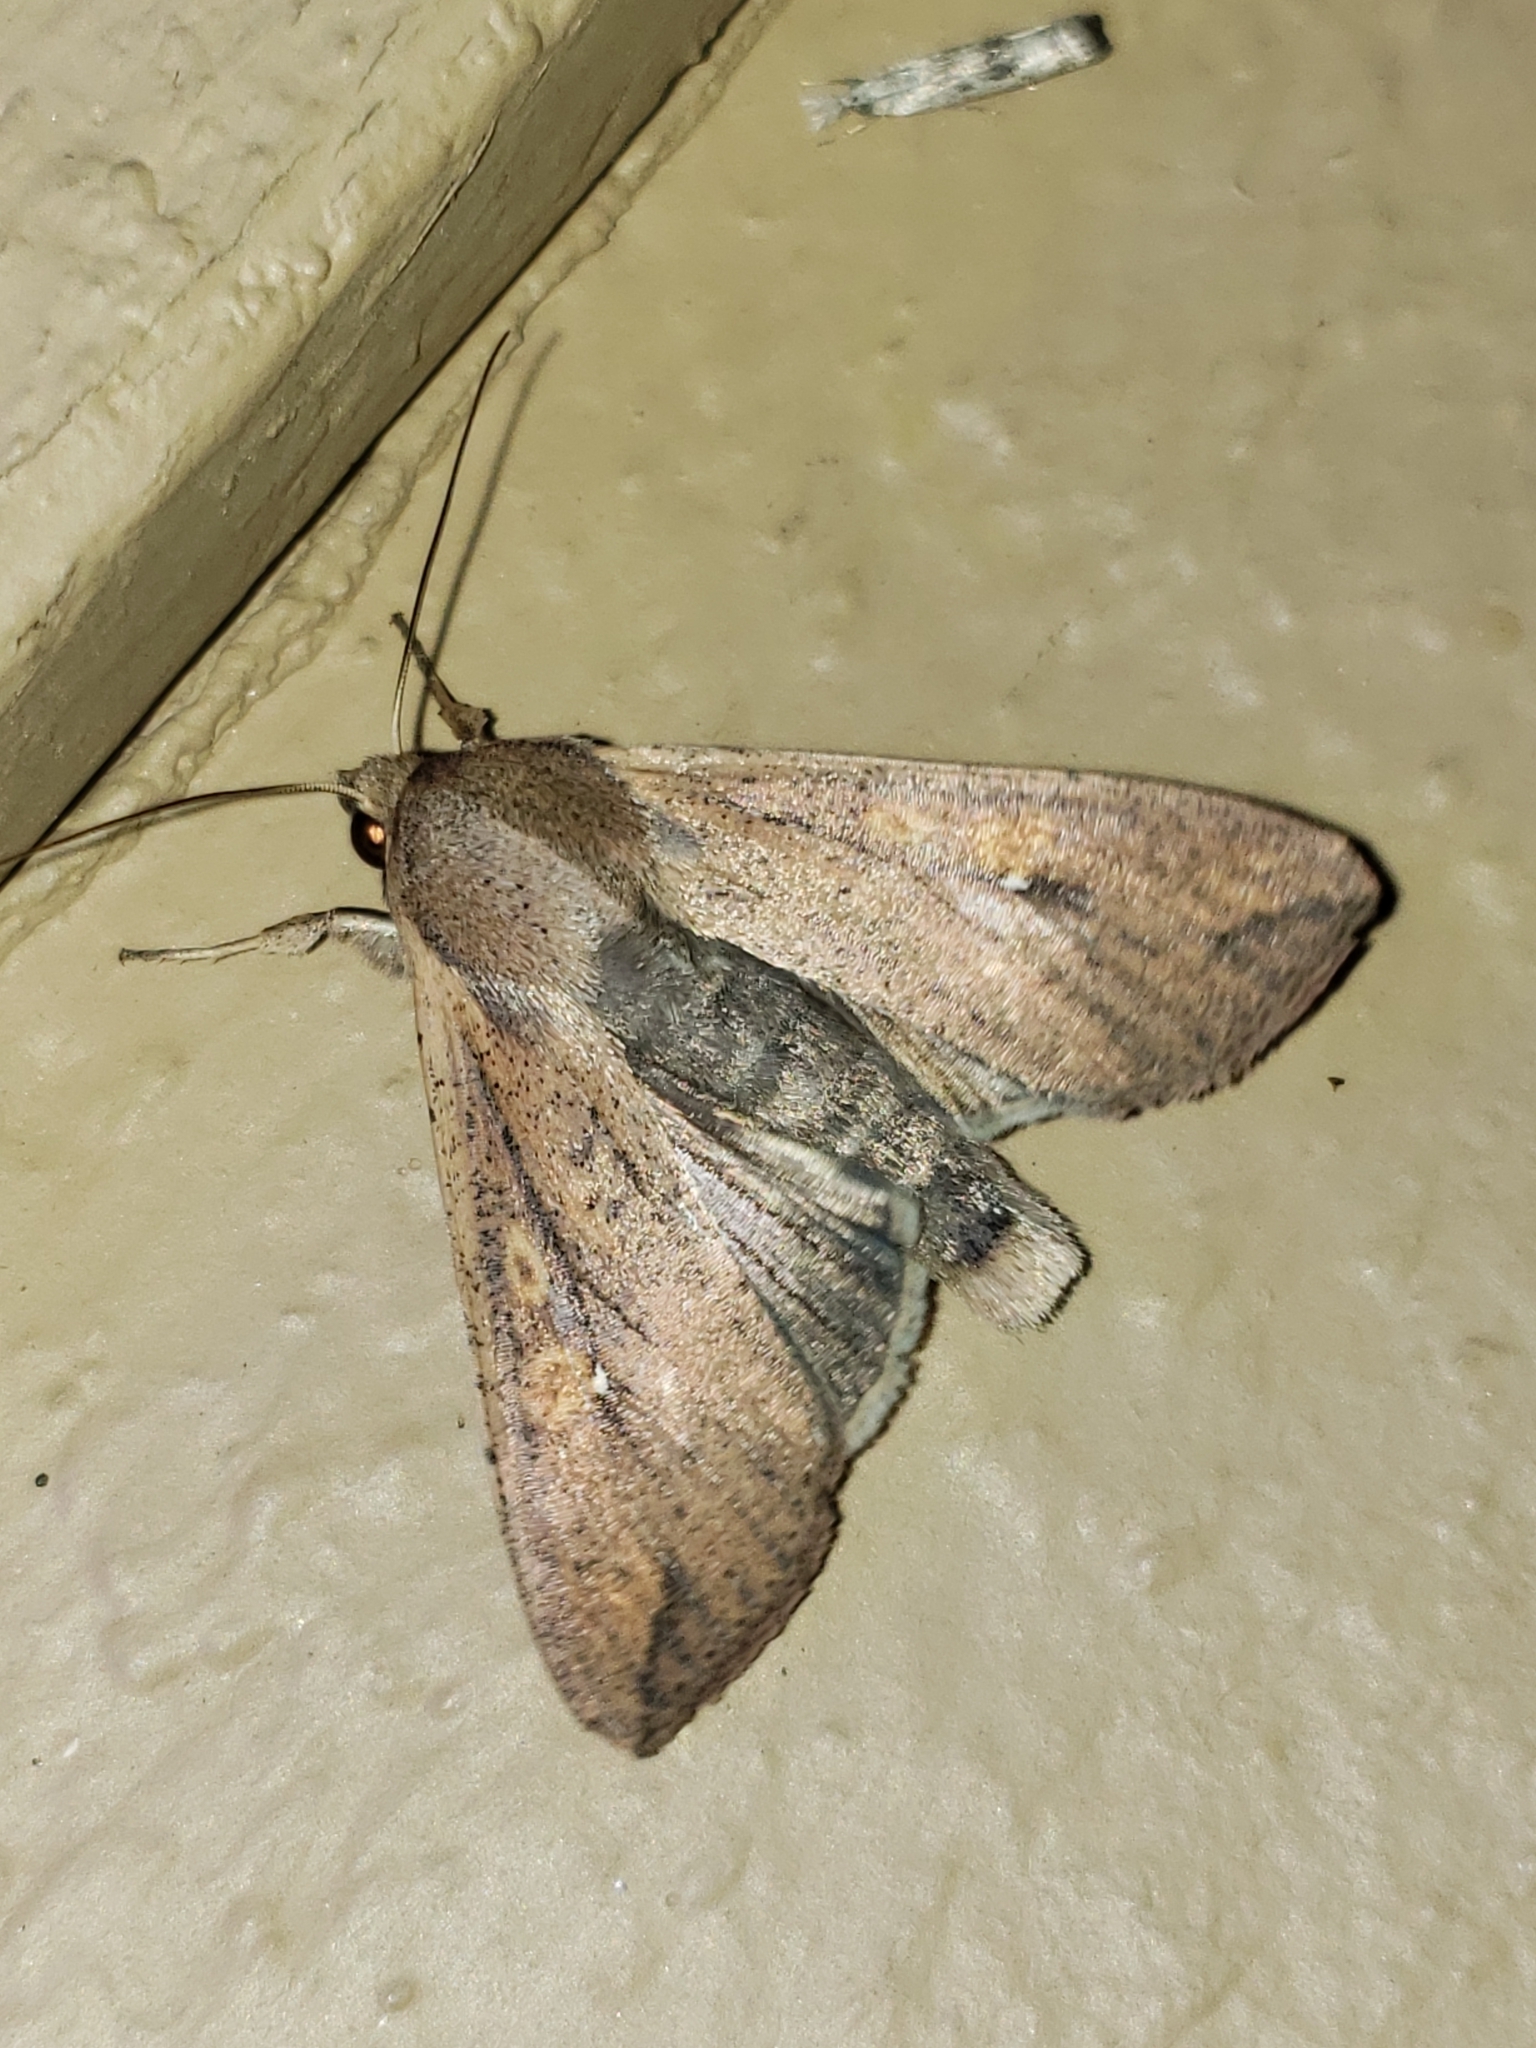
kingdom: Animalia
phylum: Arthropoda
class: Insecta
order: Lepidoptera
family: Noctuidae
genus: Mythimna
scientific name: Mythimna unipuncta
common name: White-speck
